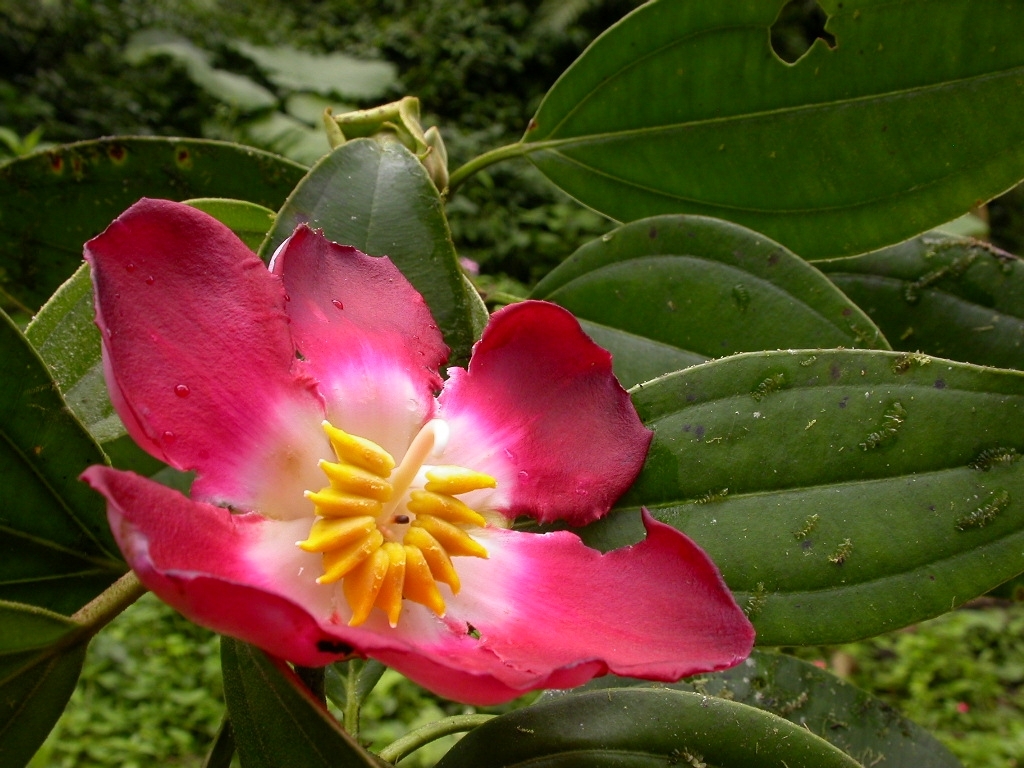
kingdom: Plantae
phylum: Tracheophyta
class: Magnoliopsida
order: Myrtales
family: Melastomataceae
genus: Blakea
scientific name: Blakea scarlatina
